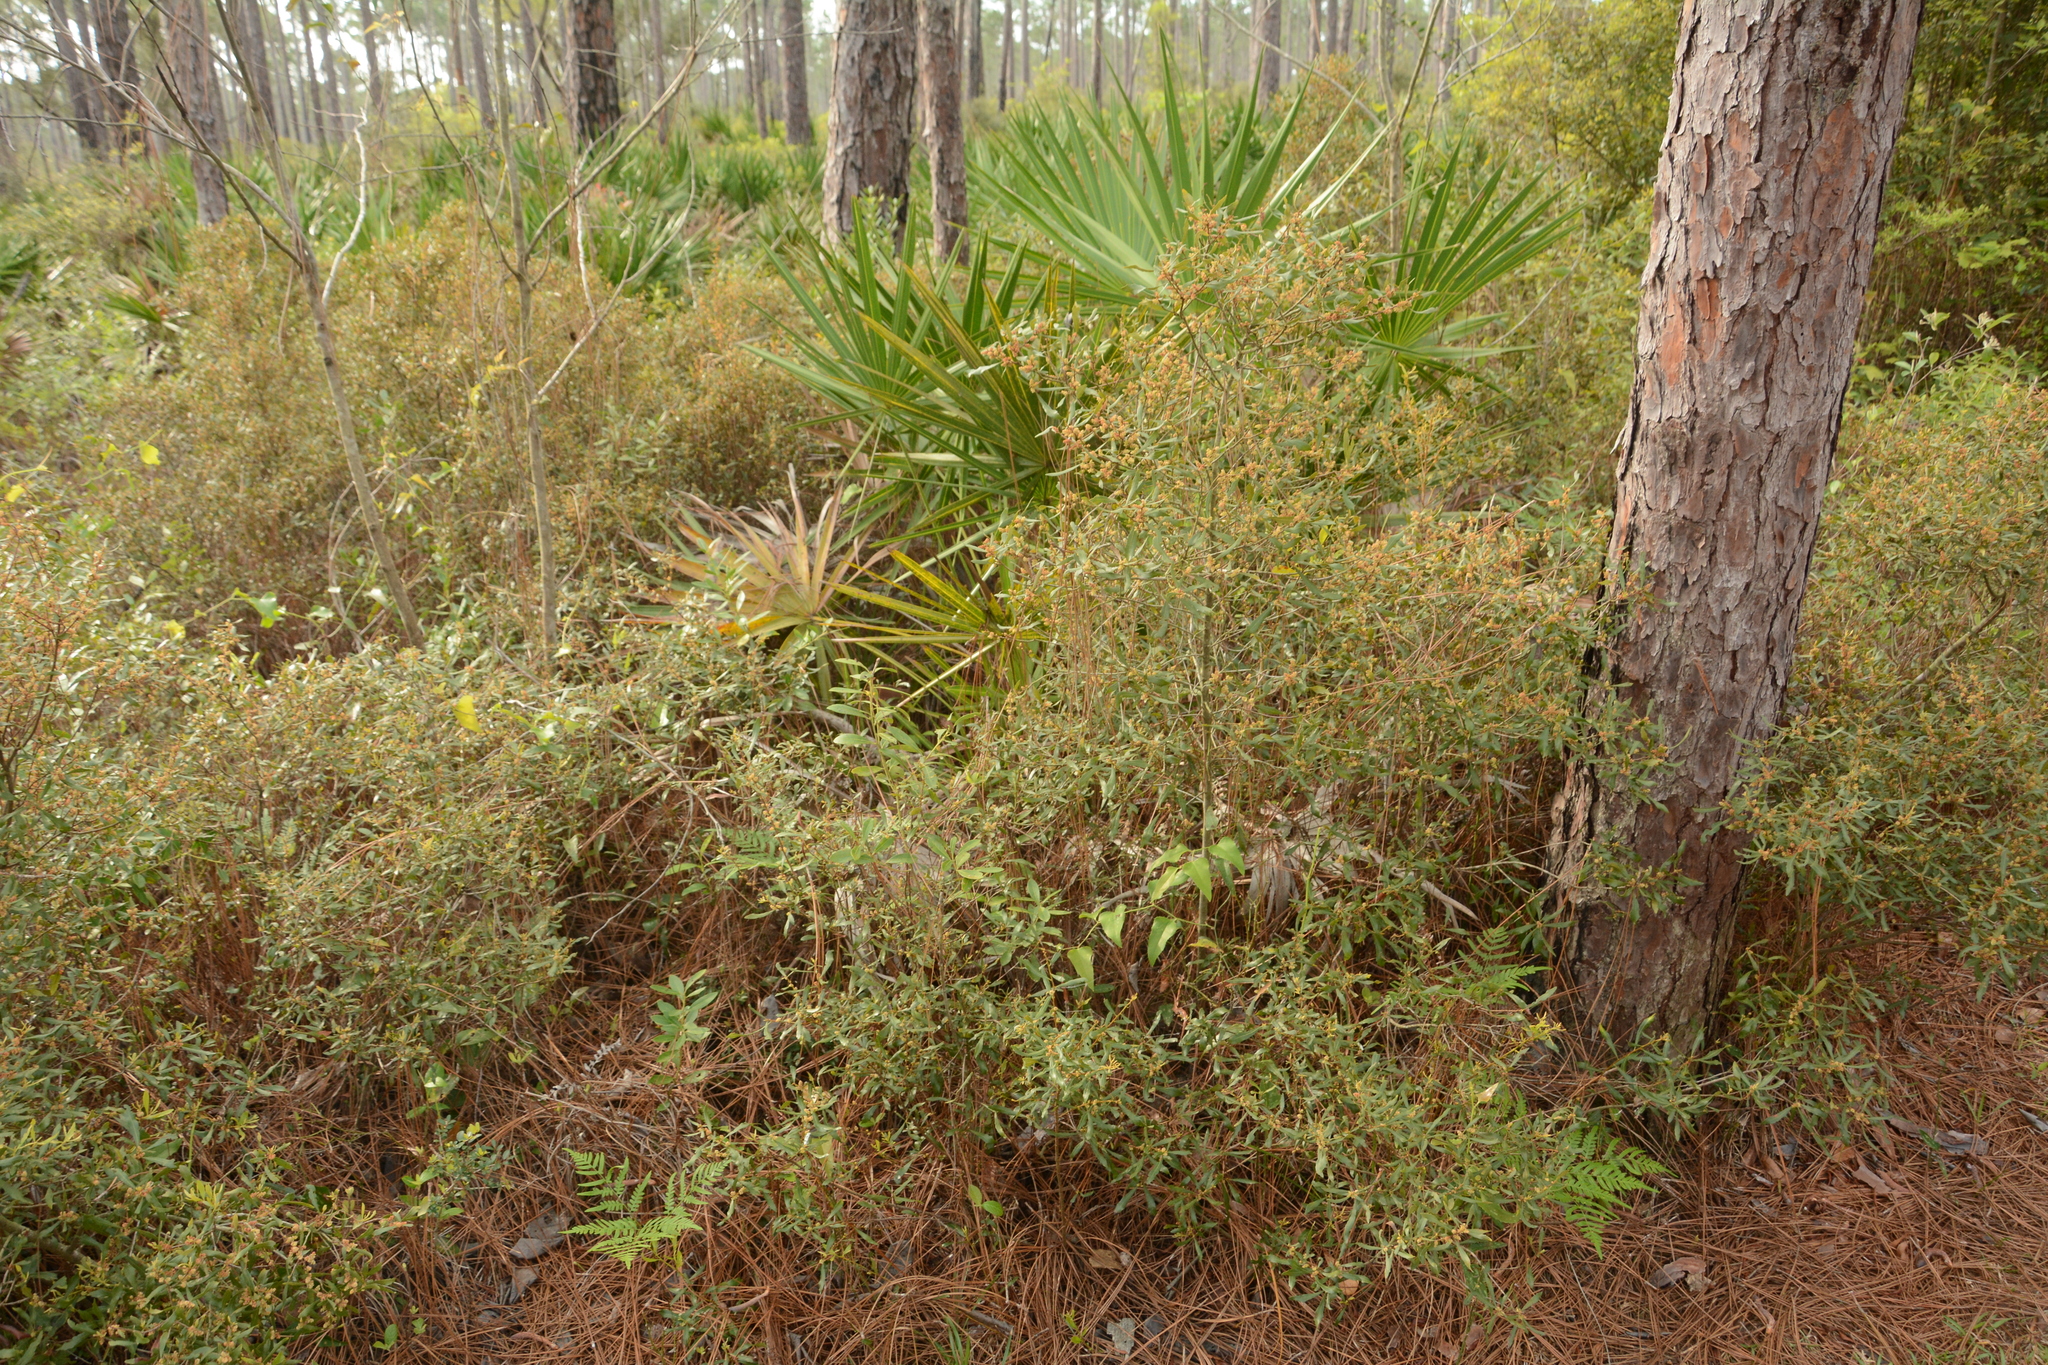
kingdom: Plantae
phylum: Tracheophyta
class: Magnoliopsida
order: Fagales
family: Myricaceae
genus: Morella
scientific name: Morella cerifera
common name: Wax myrtle
